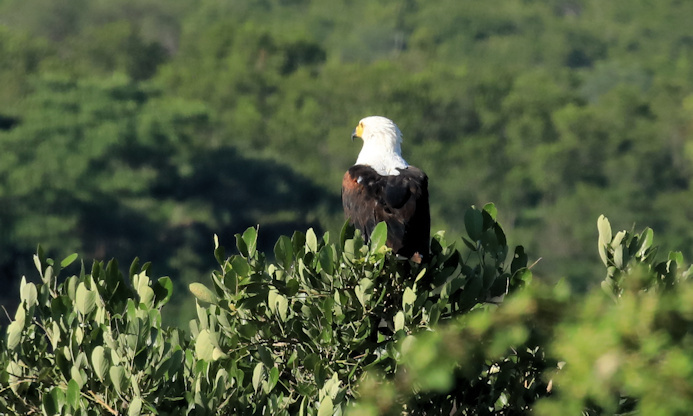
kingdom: Animalia
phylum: Chordata
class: Aves
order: Accipitriformes
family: Accipitridae
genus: Haliaeetus
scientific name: Haliaeetus vocifer
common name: African fish eagle
